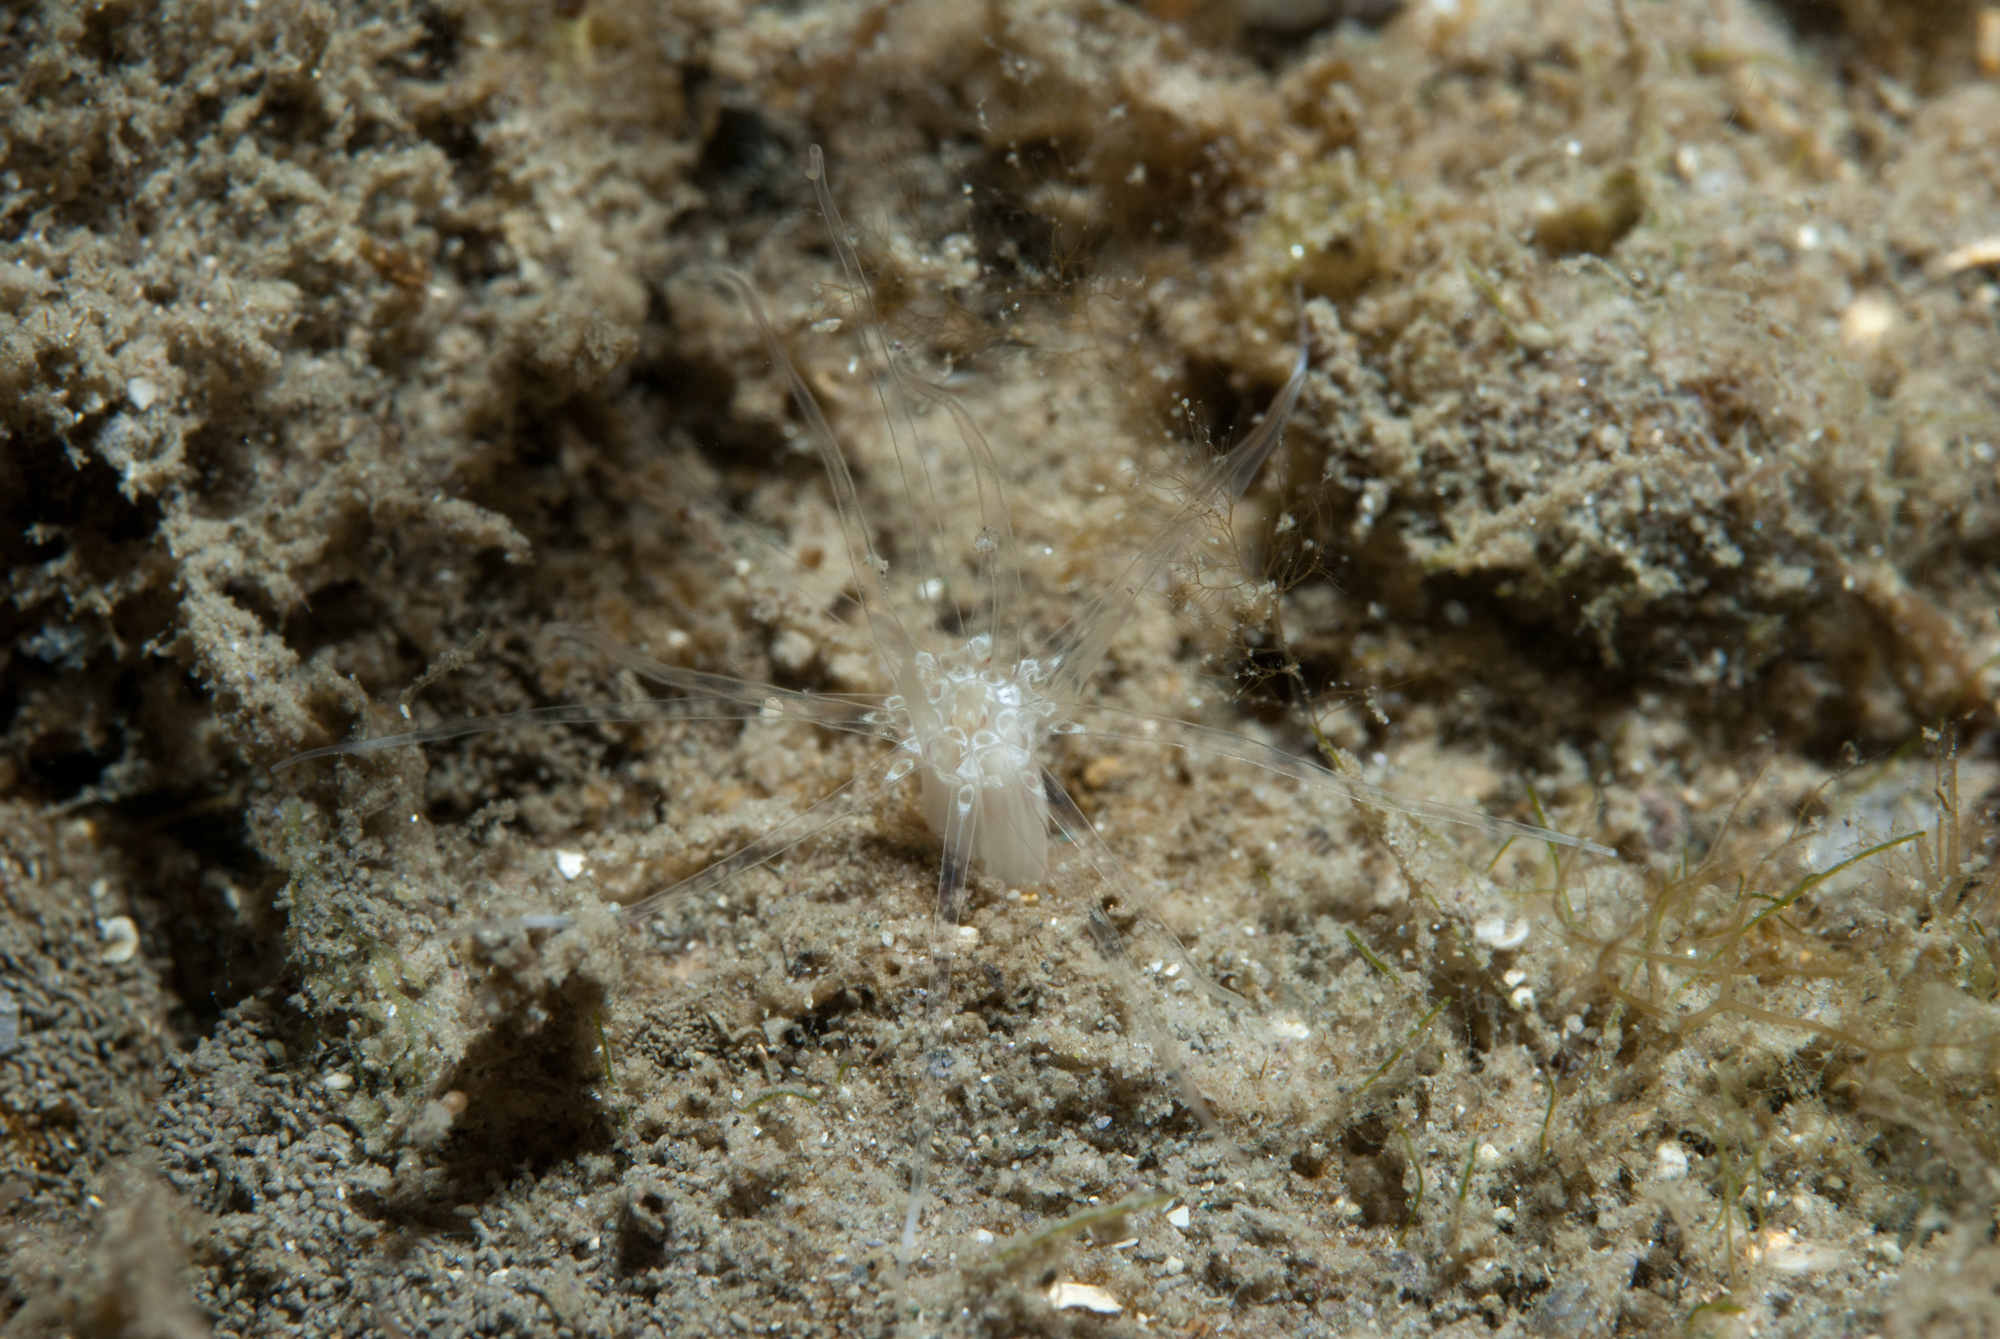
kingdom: Animalia
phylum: Cnidaria
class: Anthozoa
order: Actiniaria
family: Edwardsiidae
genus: Edwardsia
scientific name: Edwardsia delapiae
